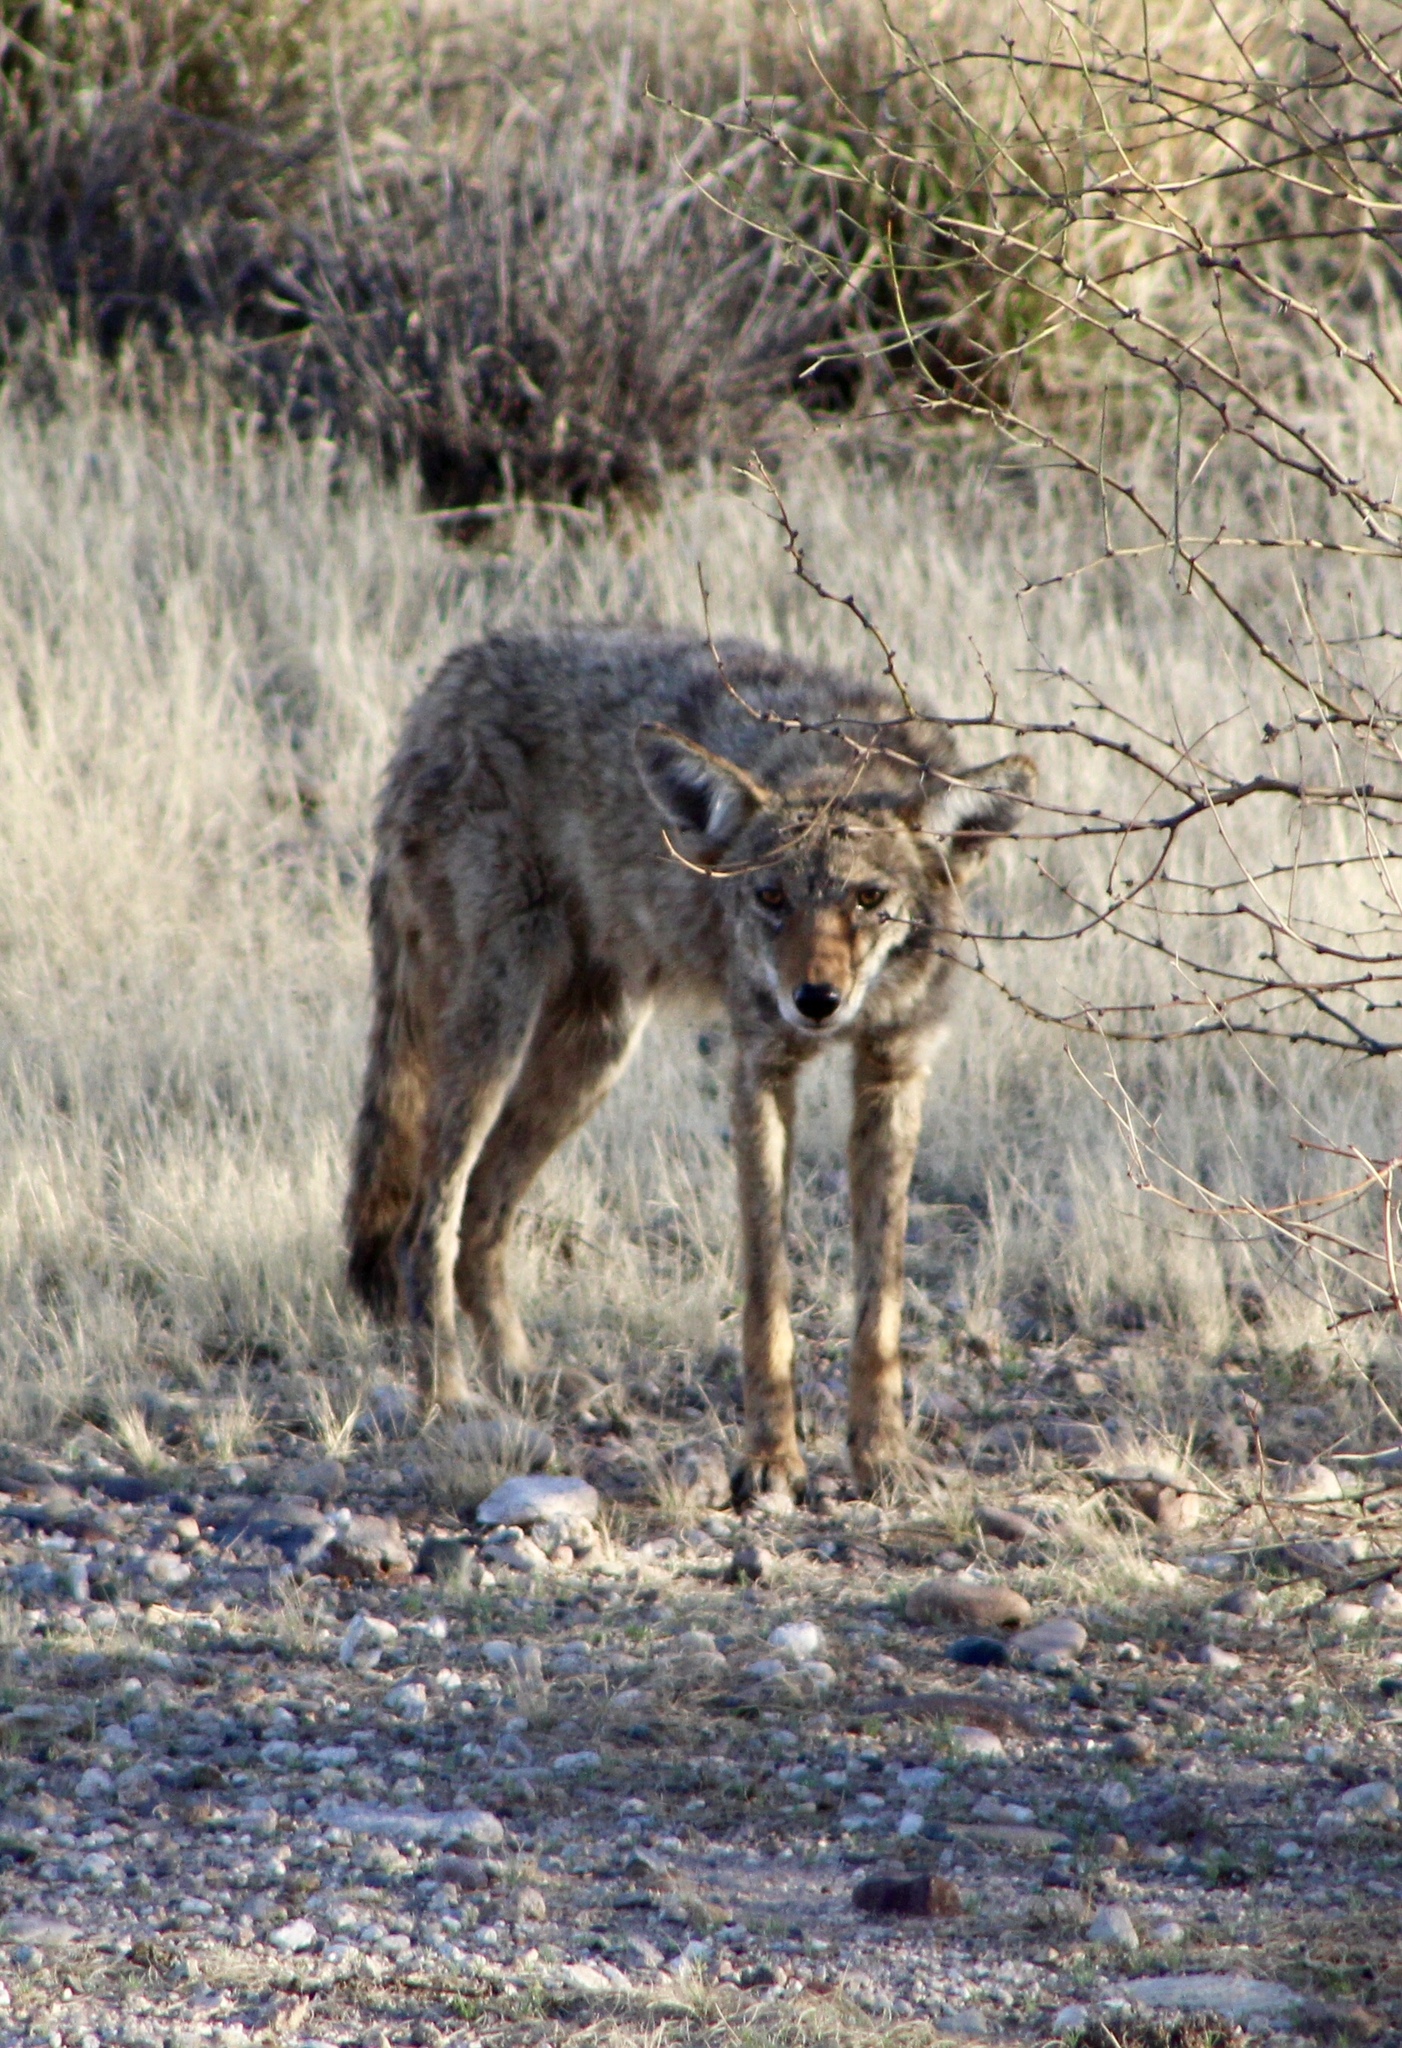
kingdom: Animalia
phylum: Chordata
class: Mammalia
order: Carnivora
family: Canidae
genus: Canis
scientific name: Canis latrans
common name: Coyote
